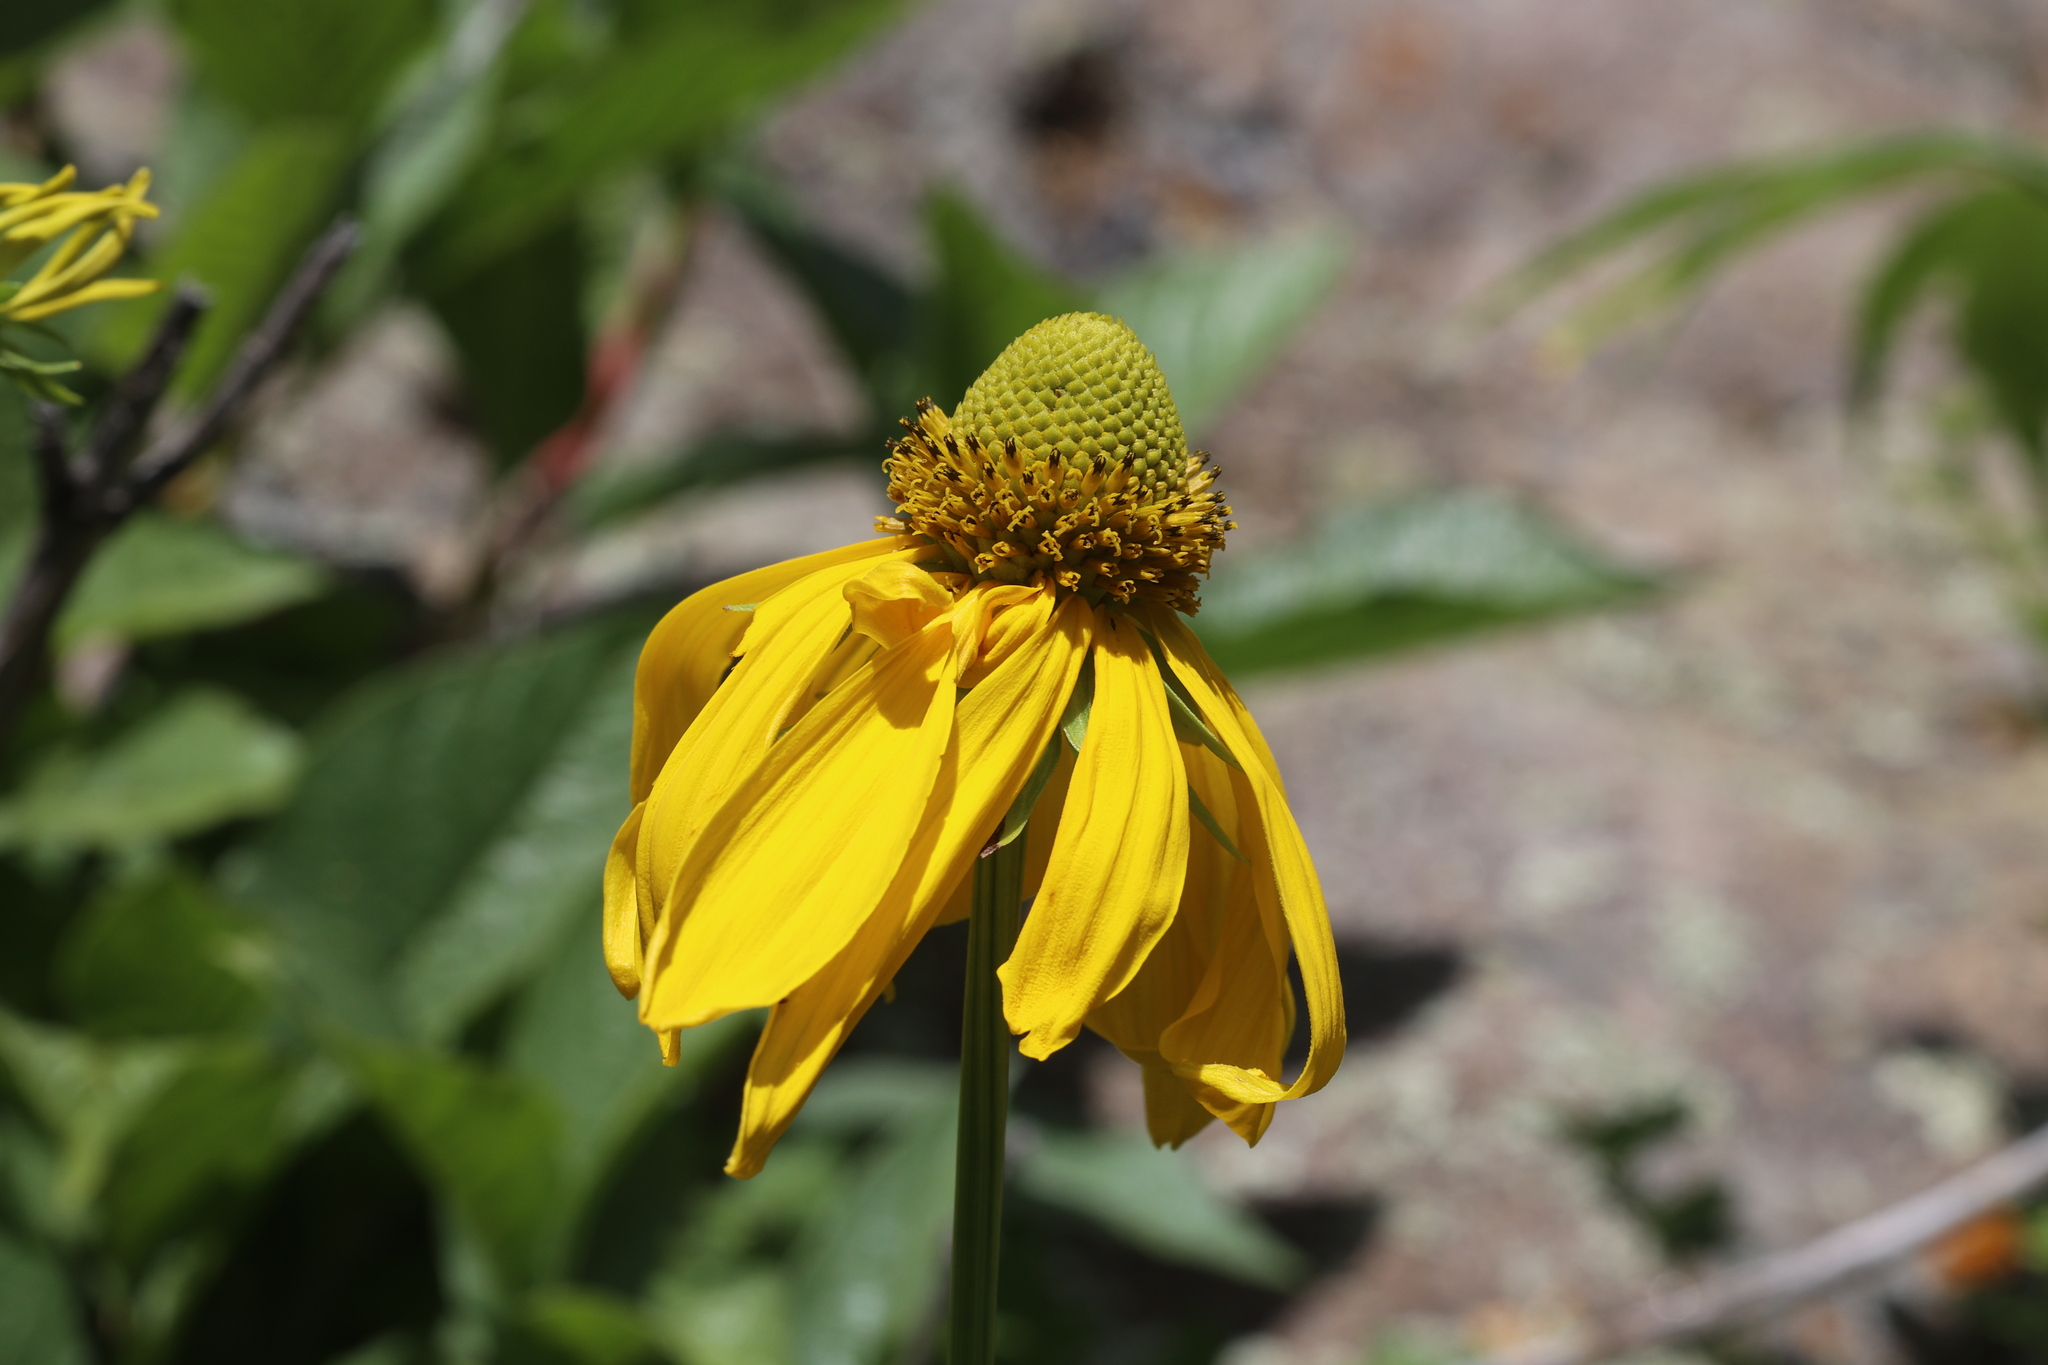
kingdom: Plantae
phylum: Tracheophyta
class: Magnoliopsida
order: Asterales
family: Asteraceae
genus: Rudbeckia
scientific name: Rudbeckia laciniata
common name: Coneflower
